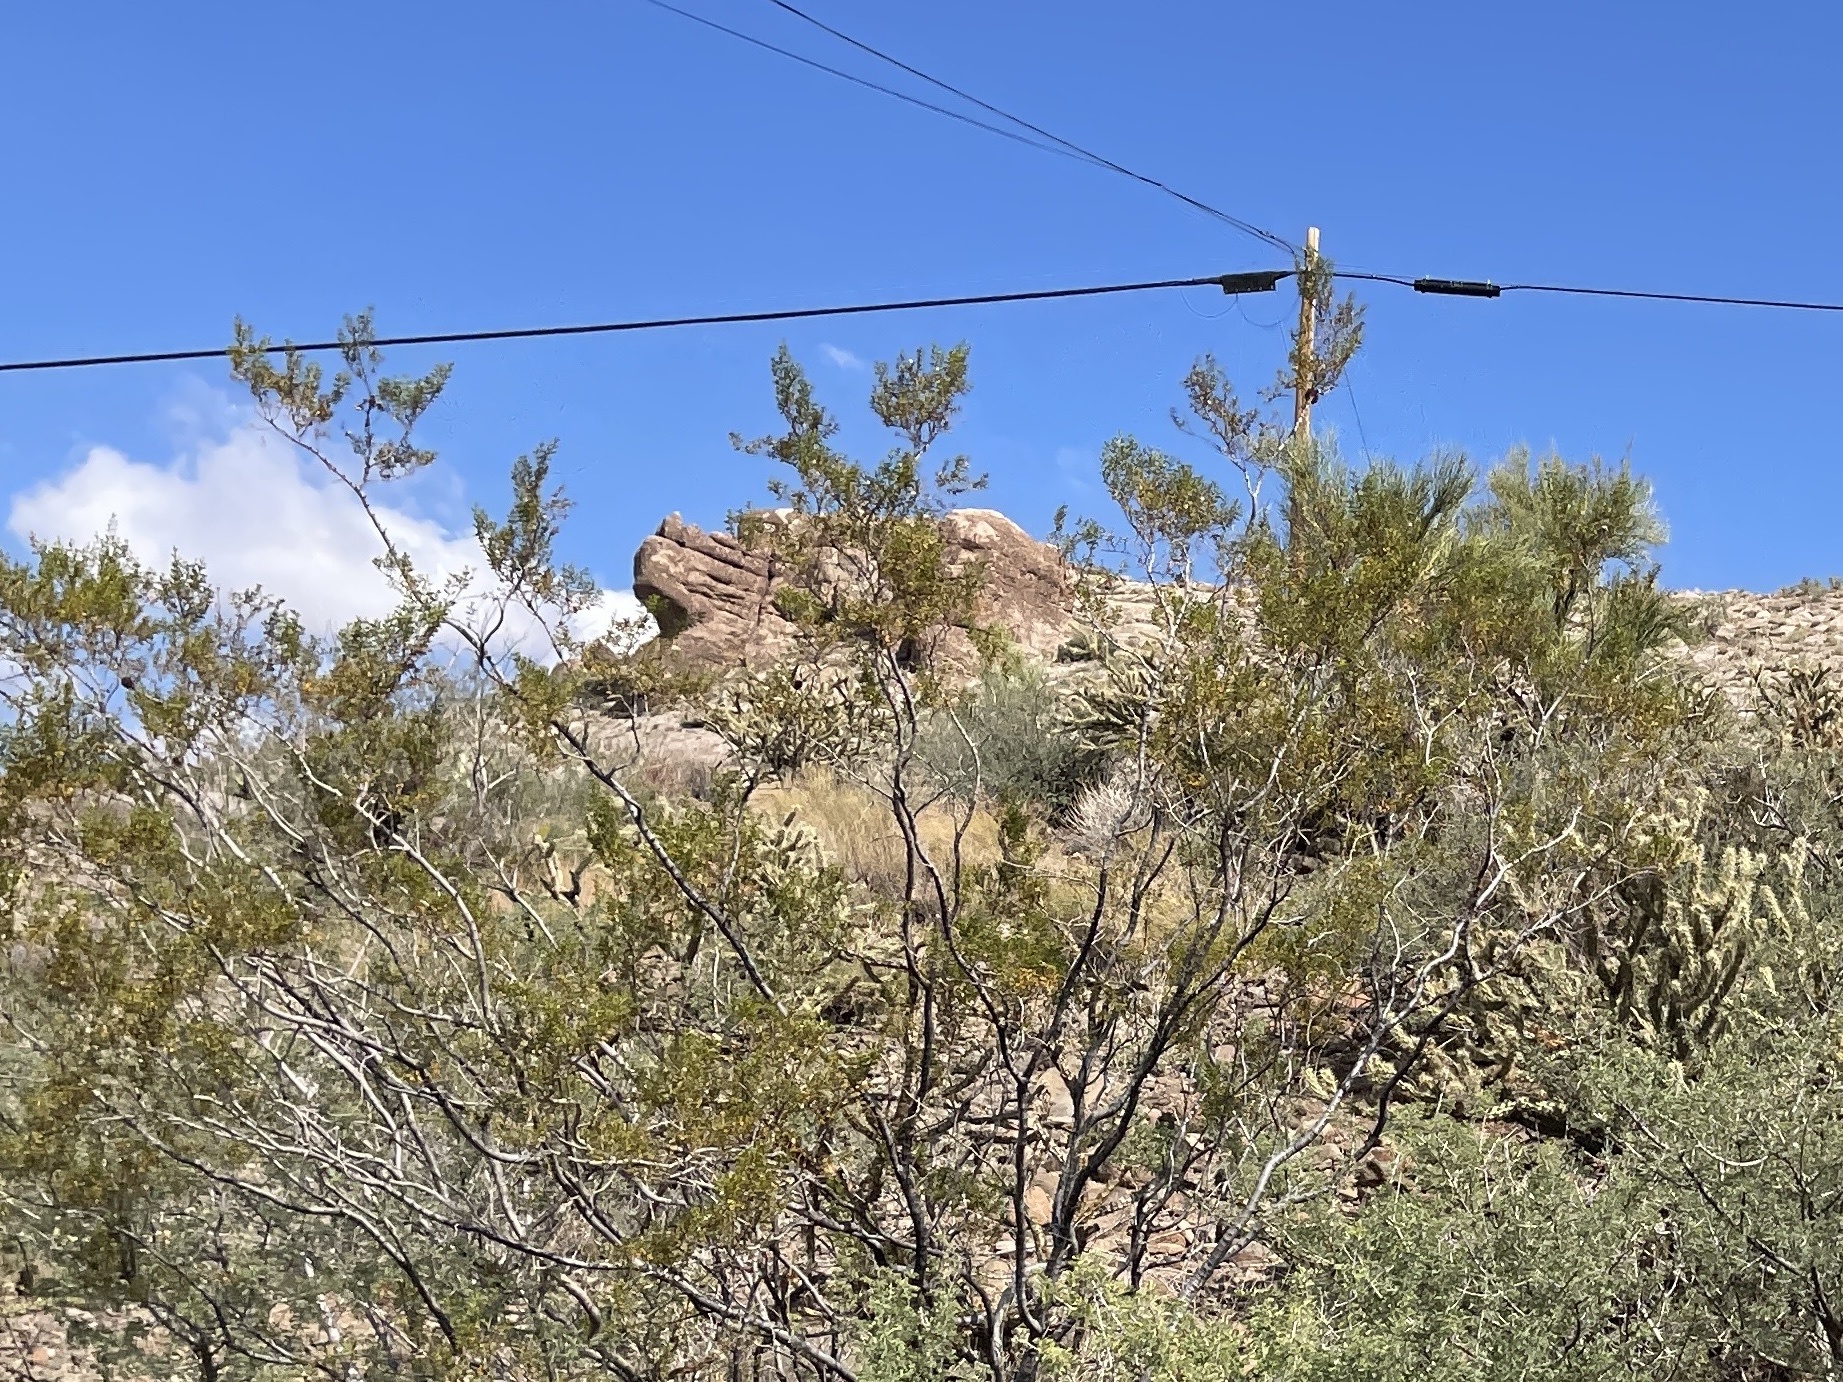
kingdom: Plantae
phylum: Tracheophyta
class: Magnoliopsida
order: Zygophyllales
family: Zygophyllaceae
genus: Larrea
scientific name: Larrea tridentata
